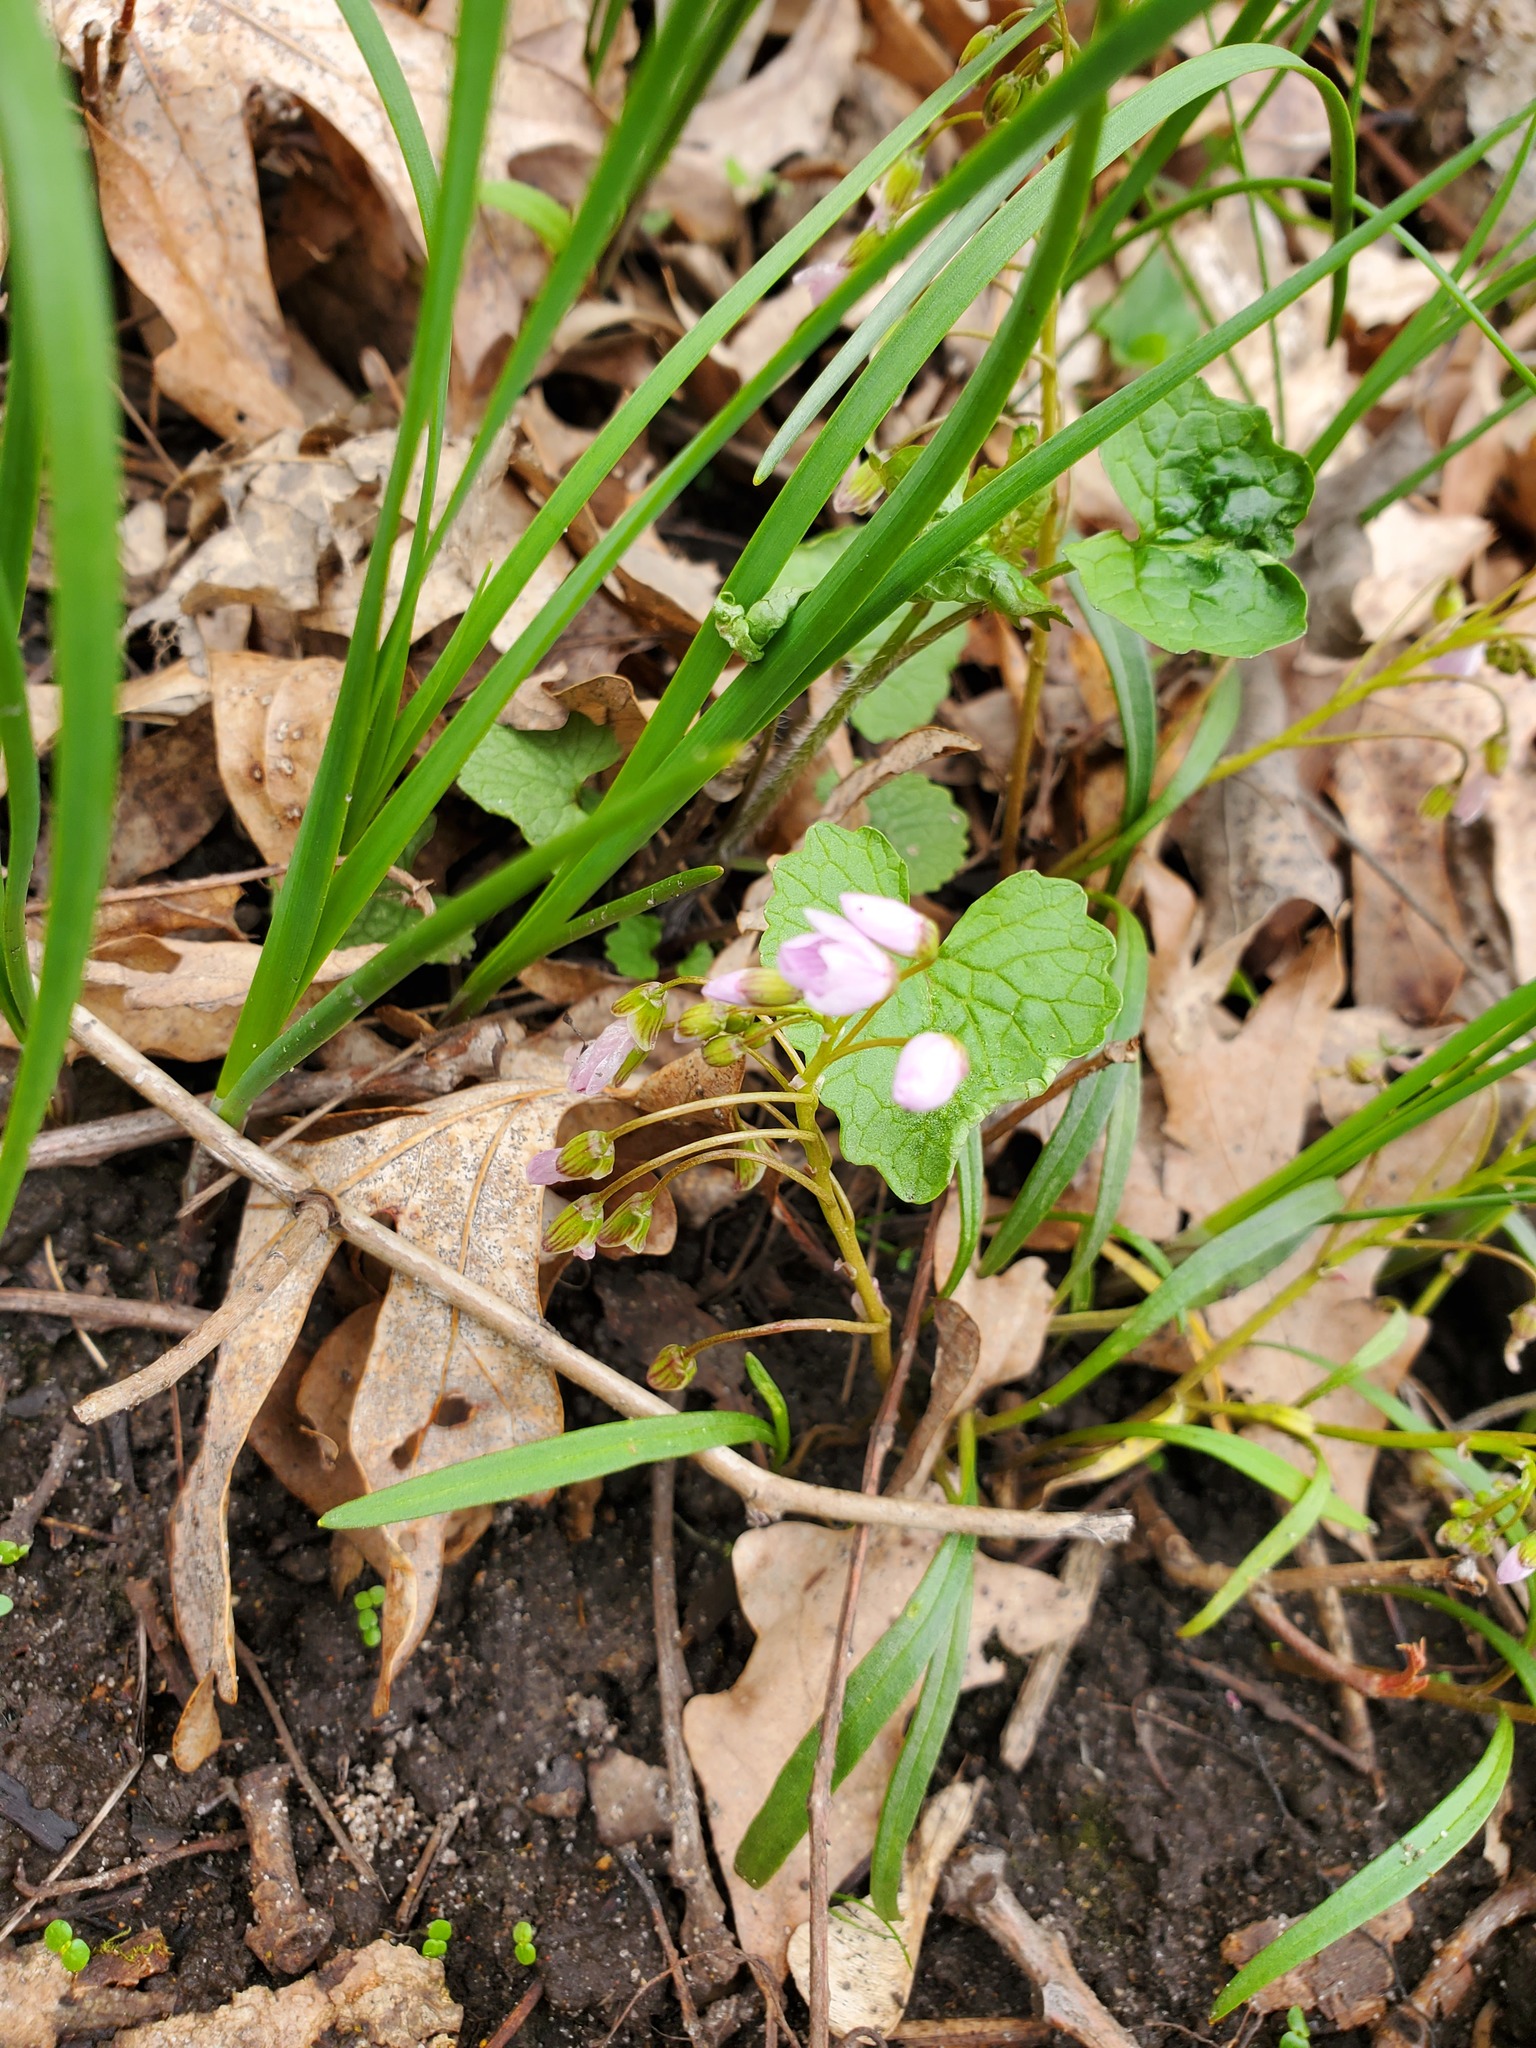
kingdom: Plantae
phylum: Tracheophyta
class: Magnoliopsida
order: Caryophyllales
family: Montiaceae
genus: Claytonia
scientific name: Claytonia virginica
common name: Virginia springbeauty
